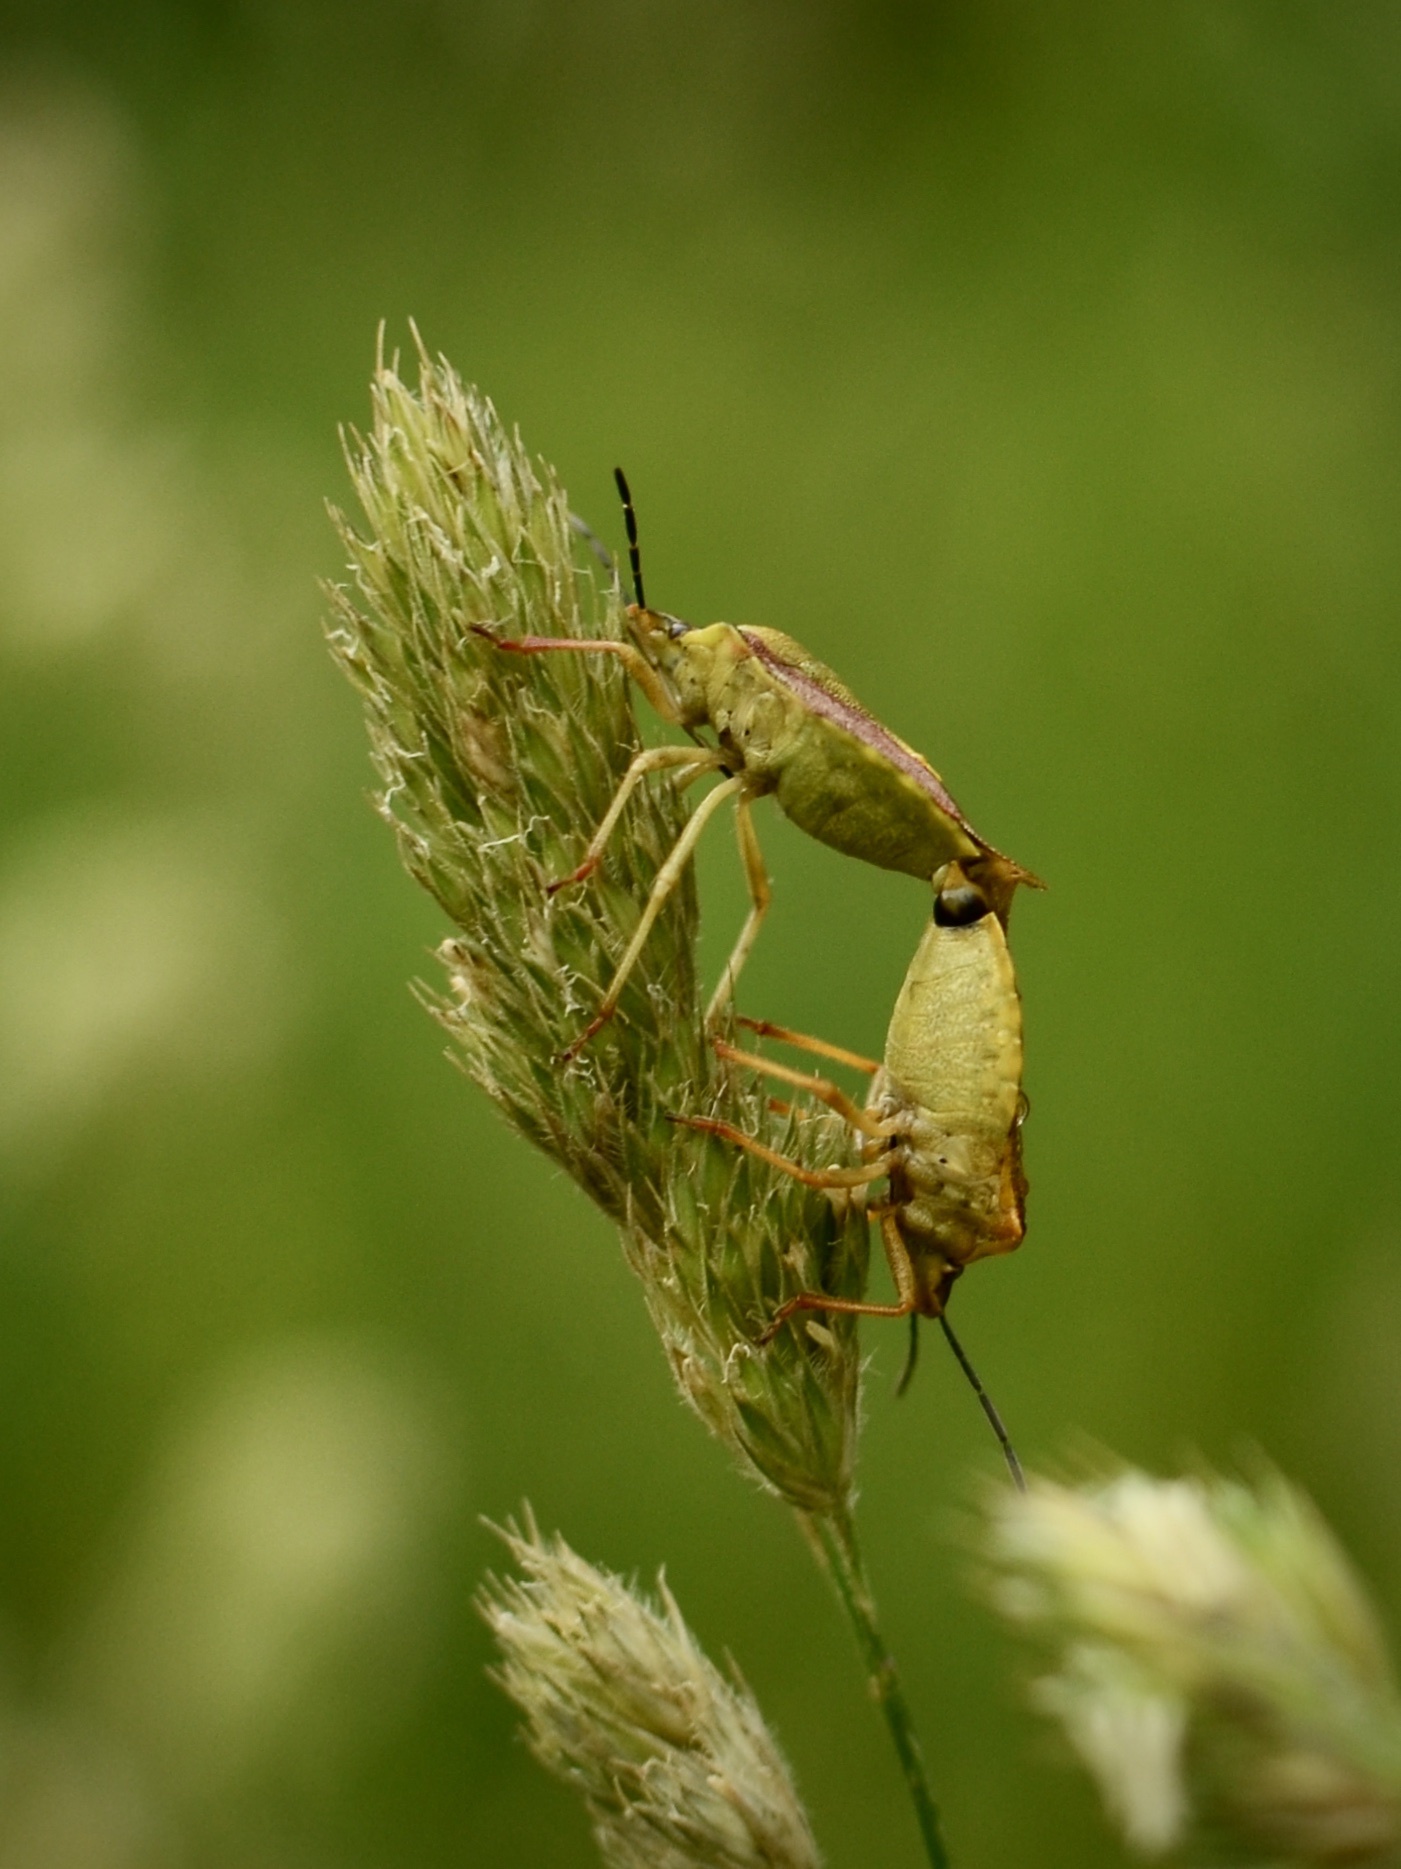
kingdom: Animalia
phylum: Arthropoda
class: Insecta
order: Hemiptera
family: Pentatomidae
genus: Carpocoris
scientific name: Carpocoris purpureipennis
